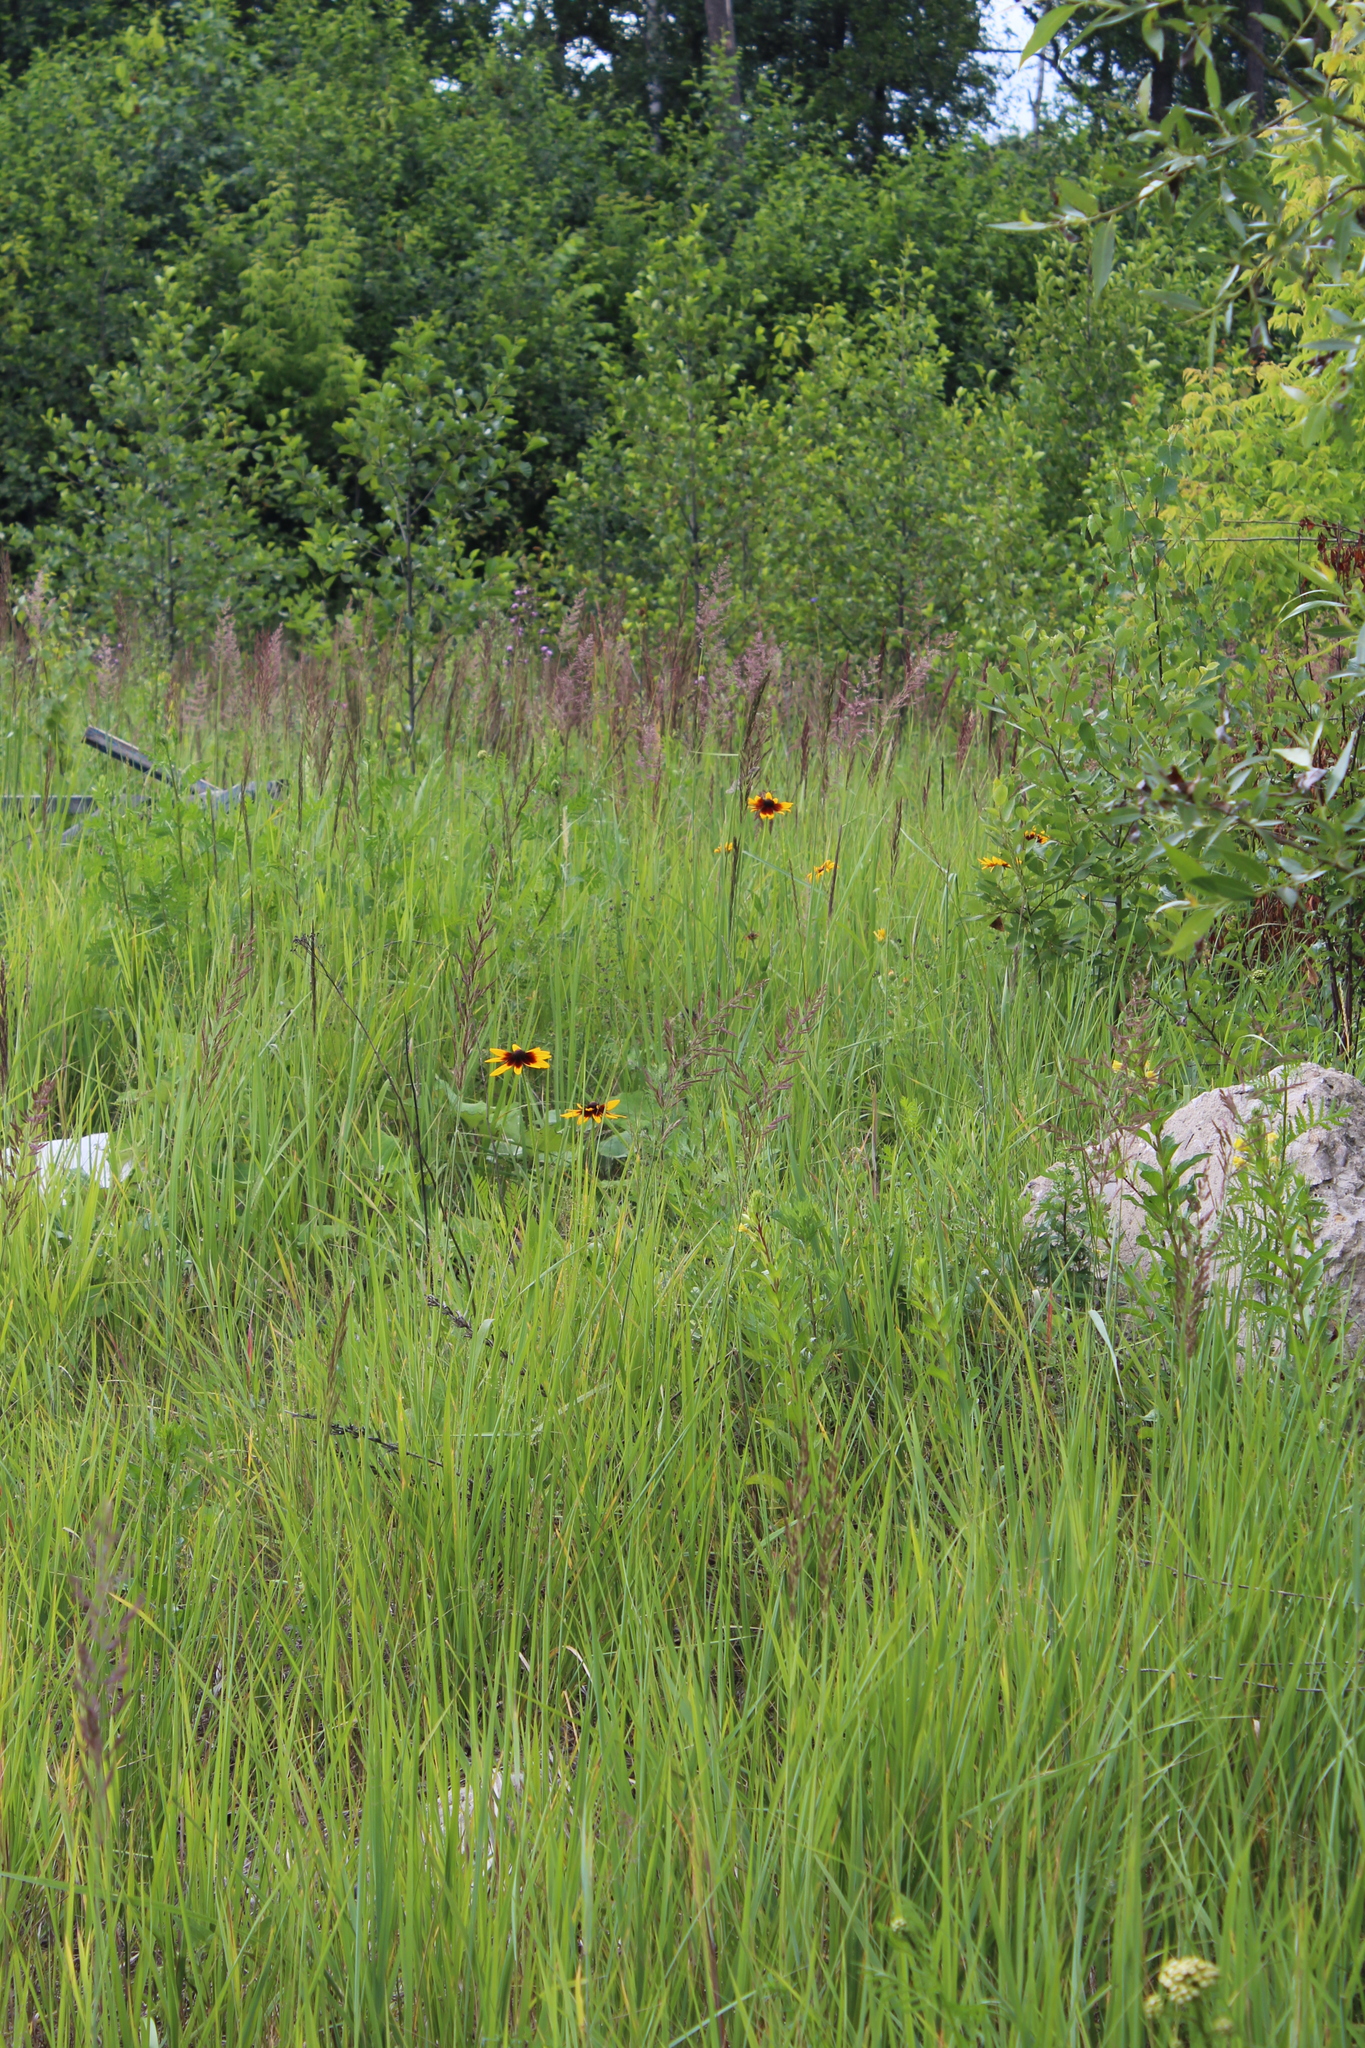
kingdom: Plantae
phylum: Tracheophyta
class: Magnoliopsida
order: Asterales
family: Asteraceae
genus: Rudbeckia
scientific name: Rudbeckia hirta
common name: Black-eyed-susan
